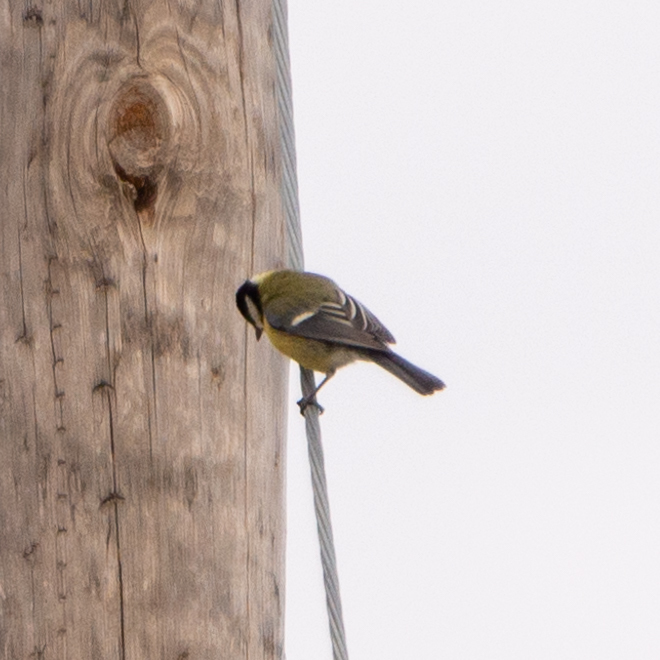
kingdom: Animalia
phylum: Chordata
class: Aves
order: Passeriformes
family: Paridae
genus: Parus
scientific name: Parus major
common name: Great tit
